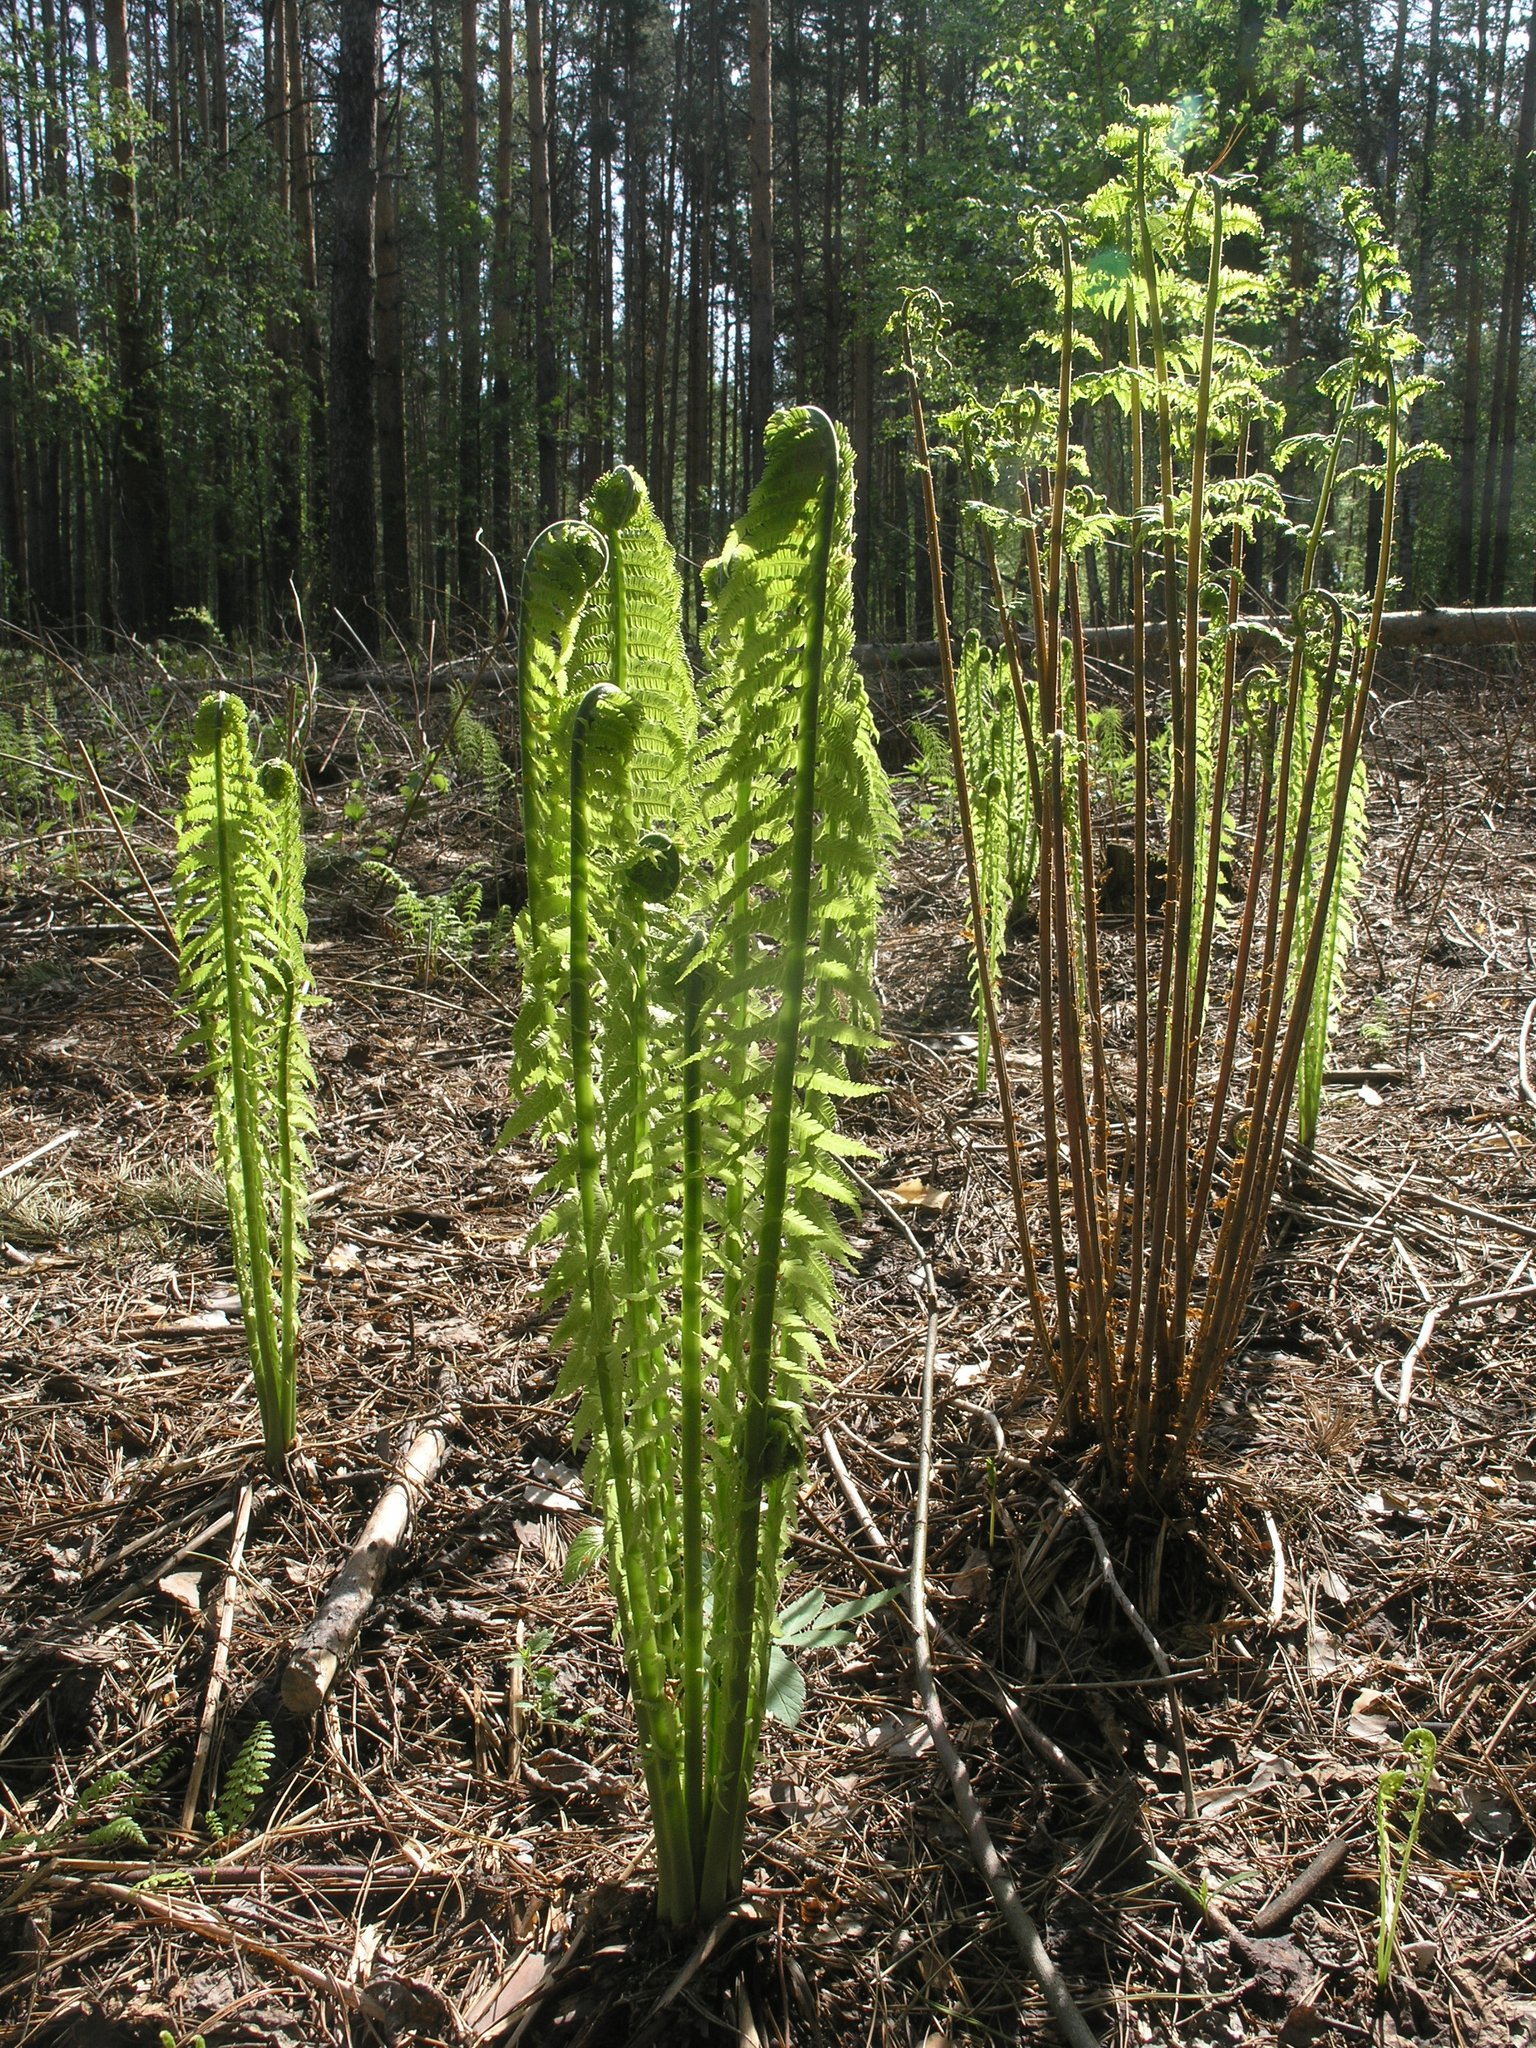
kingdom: Plantae
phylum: Tracheophyta
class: Polypodiopsida
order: Polypodiales
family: Onocleaceae
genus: Matteuccia
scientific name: Matteuccia struthiopteris
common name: Ostrich fern
